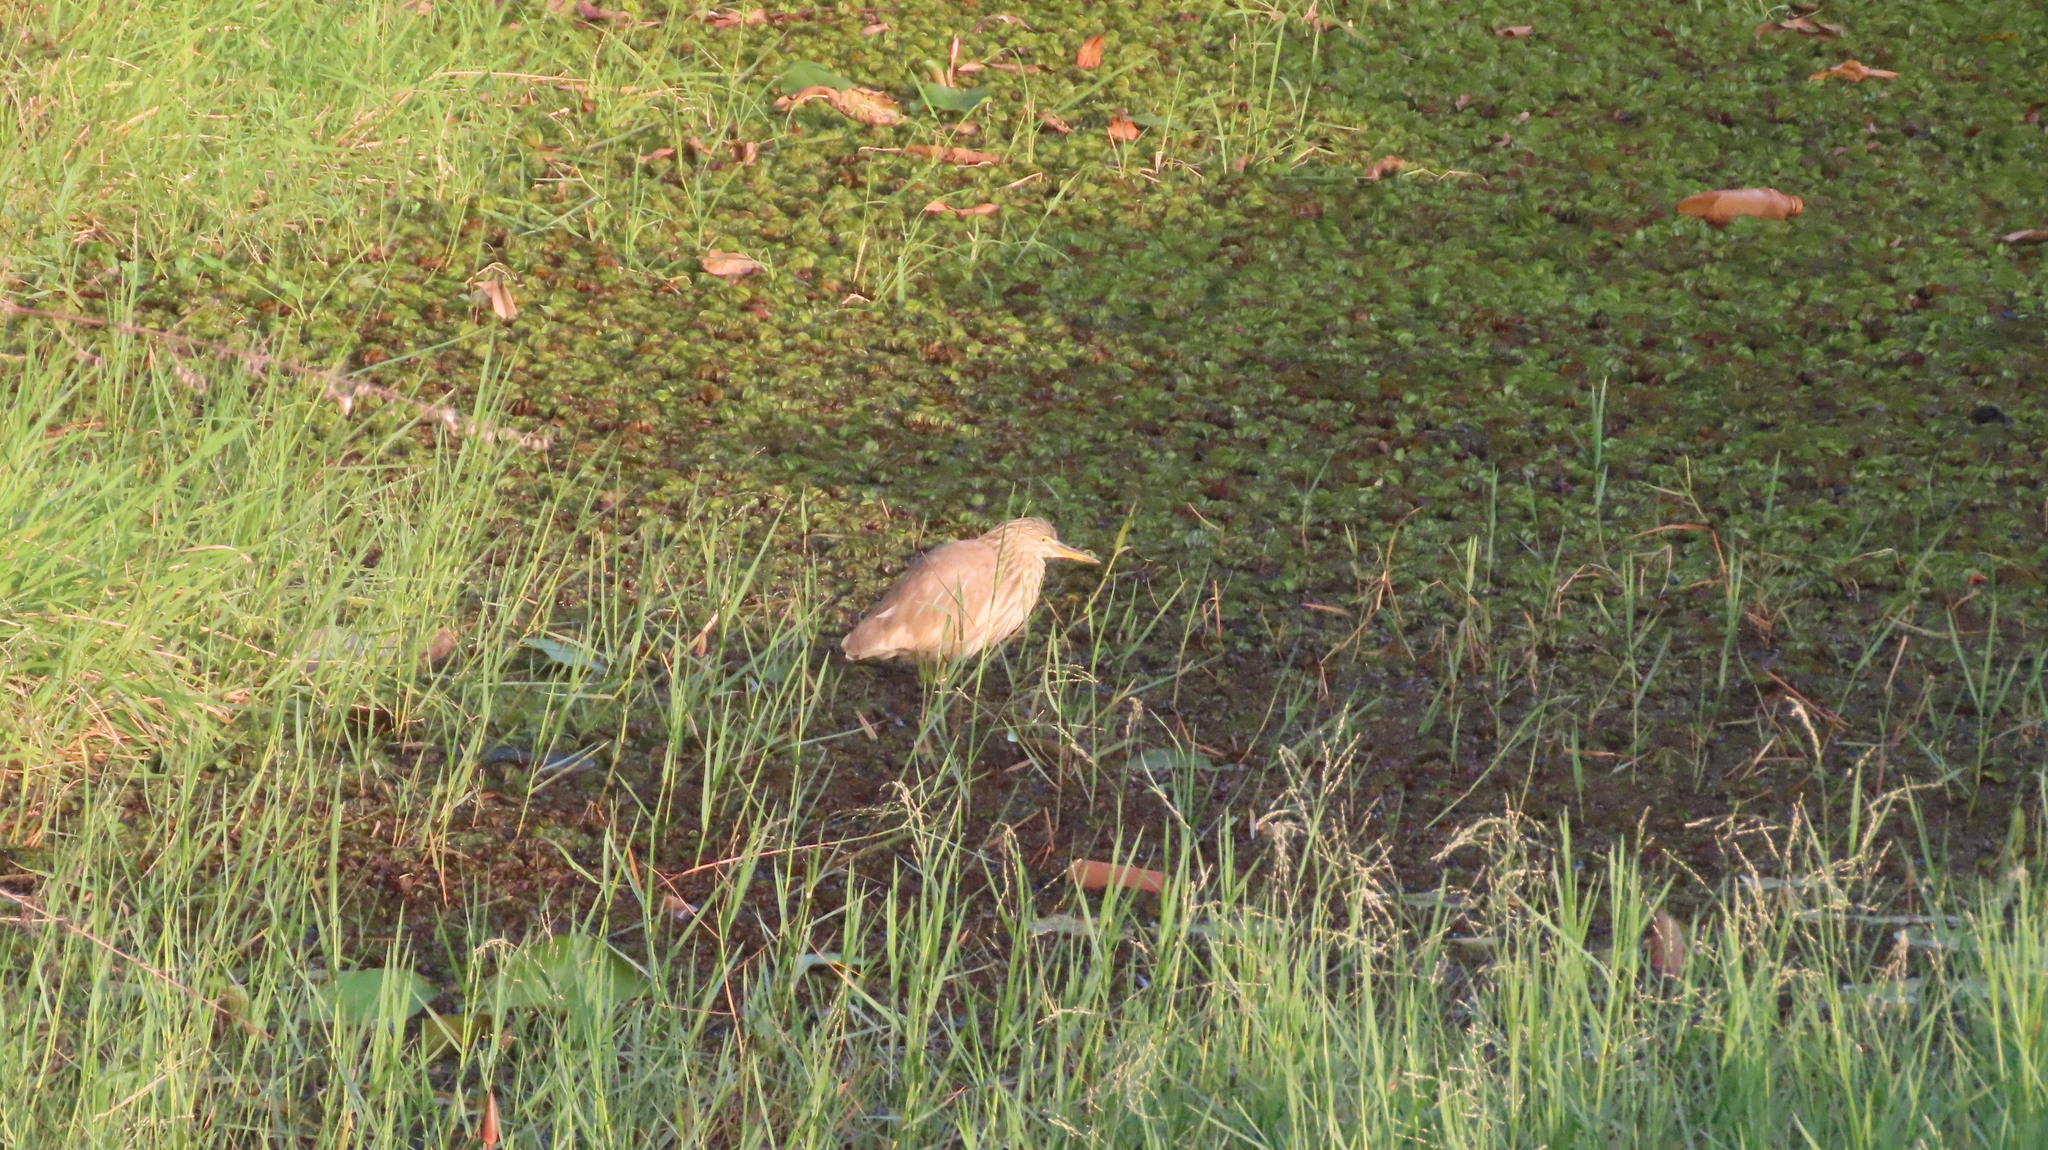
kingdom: Animalia
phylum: Chordata
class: Aves
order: Pelecaniformes
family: Ardeidae
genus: Ardeola
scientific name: Ardeola grayii
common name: Indian pond heron
